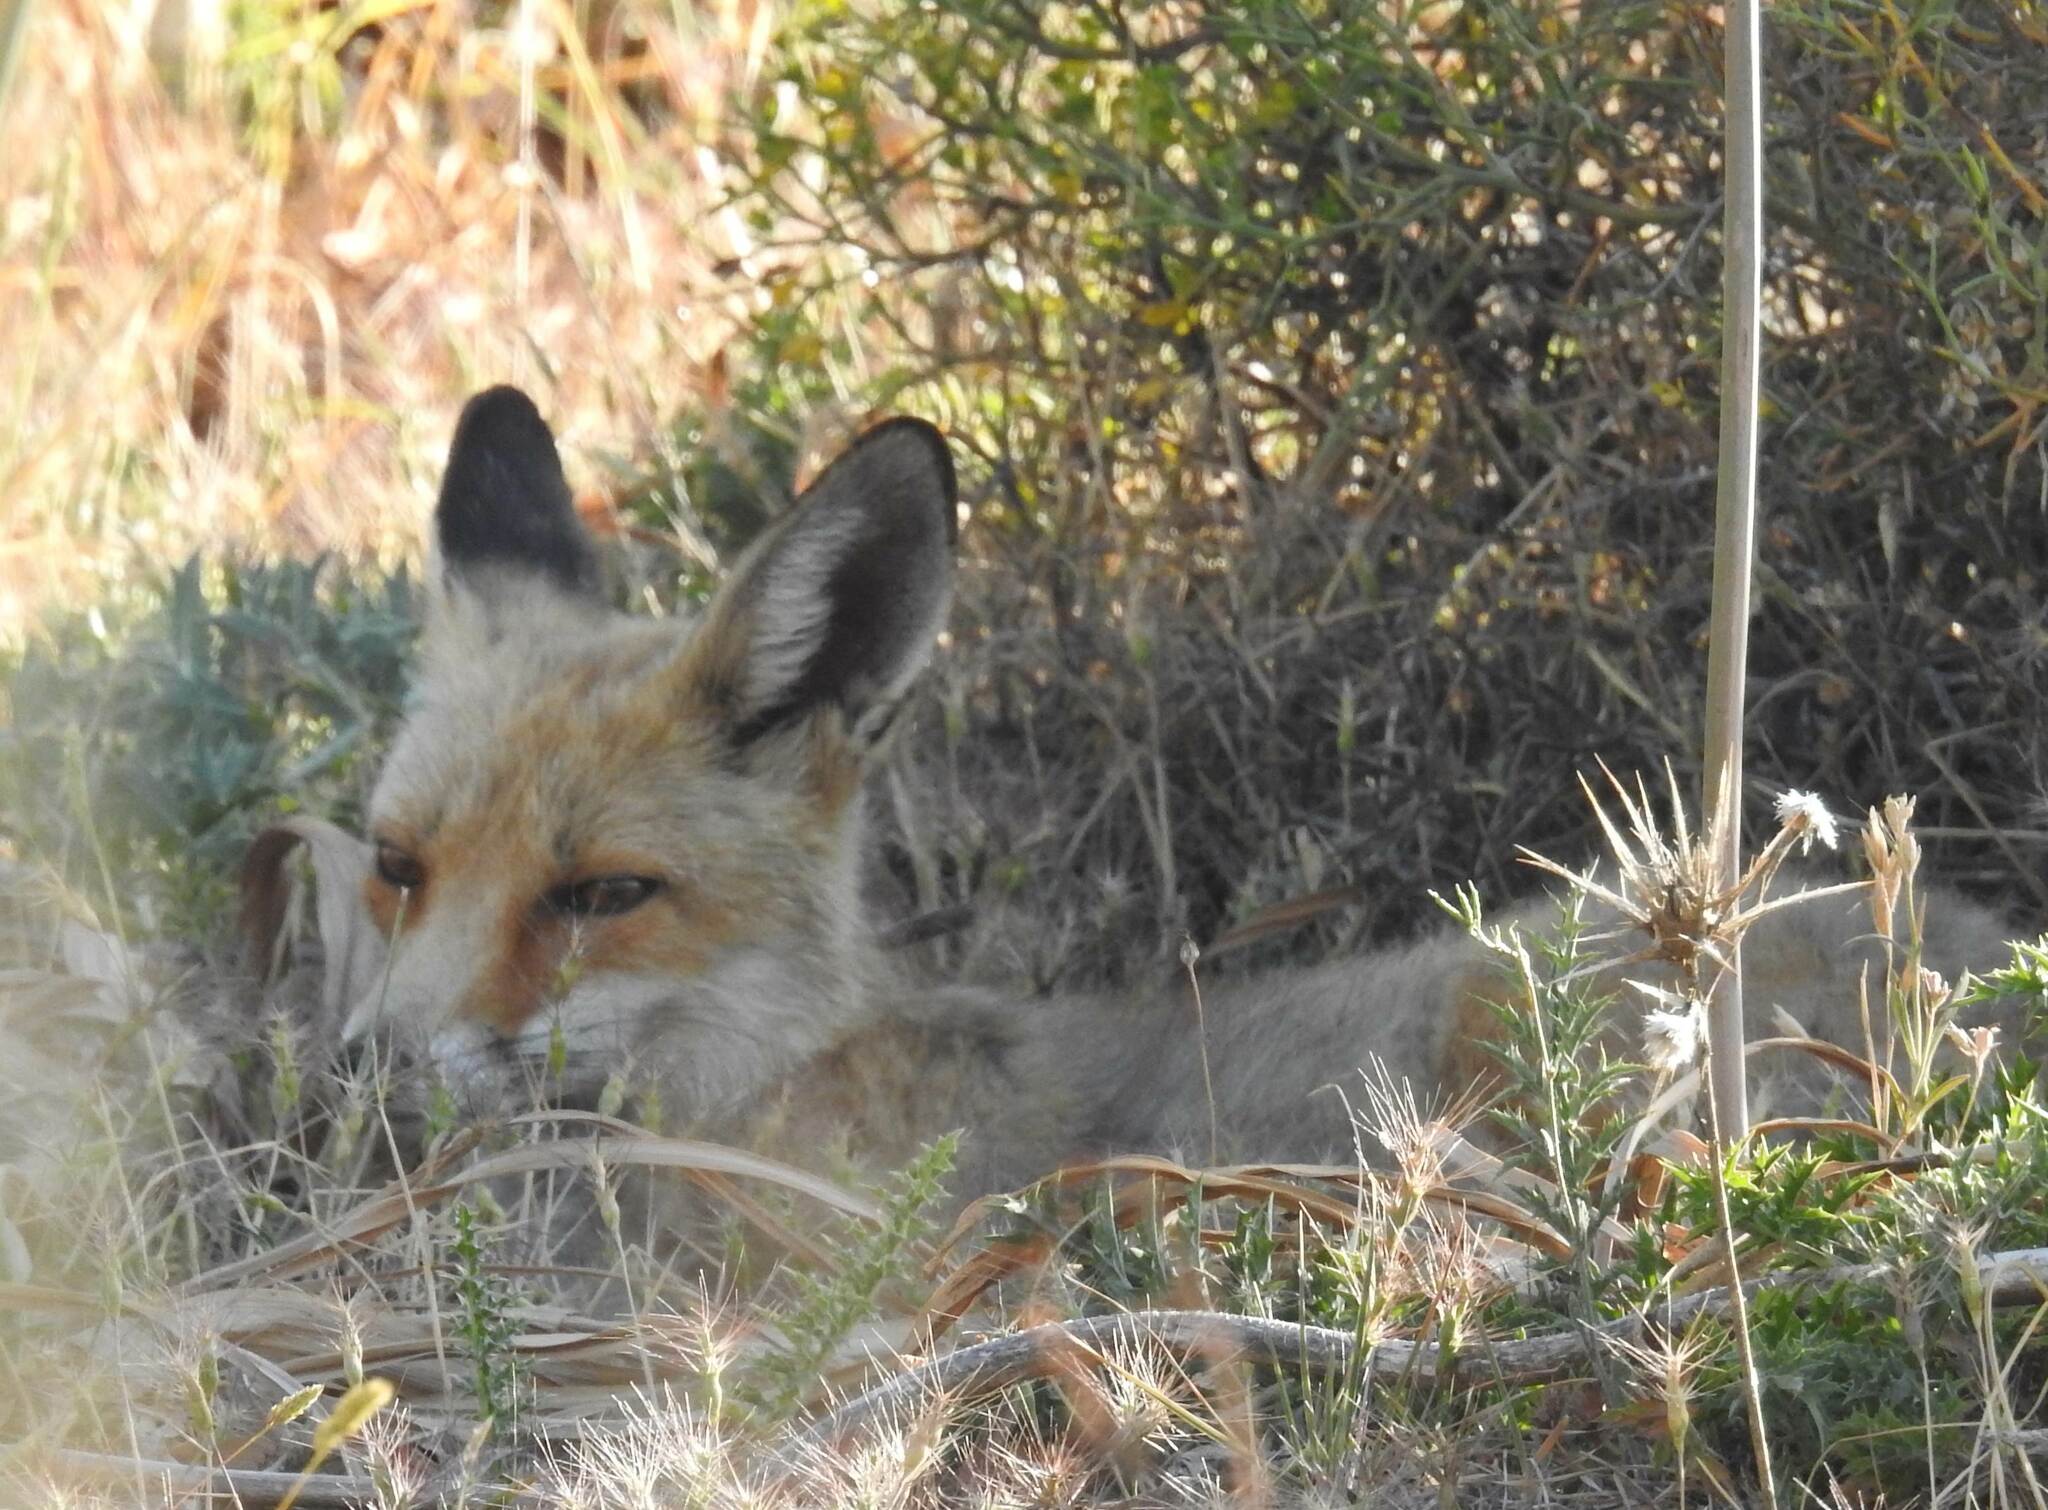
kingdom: Animalia
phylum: Chordata
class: Mammalia
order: Carnivora
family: Canidae
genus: Vulpes
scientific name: Vulpes vulpes
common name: Red fox
